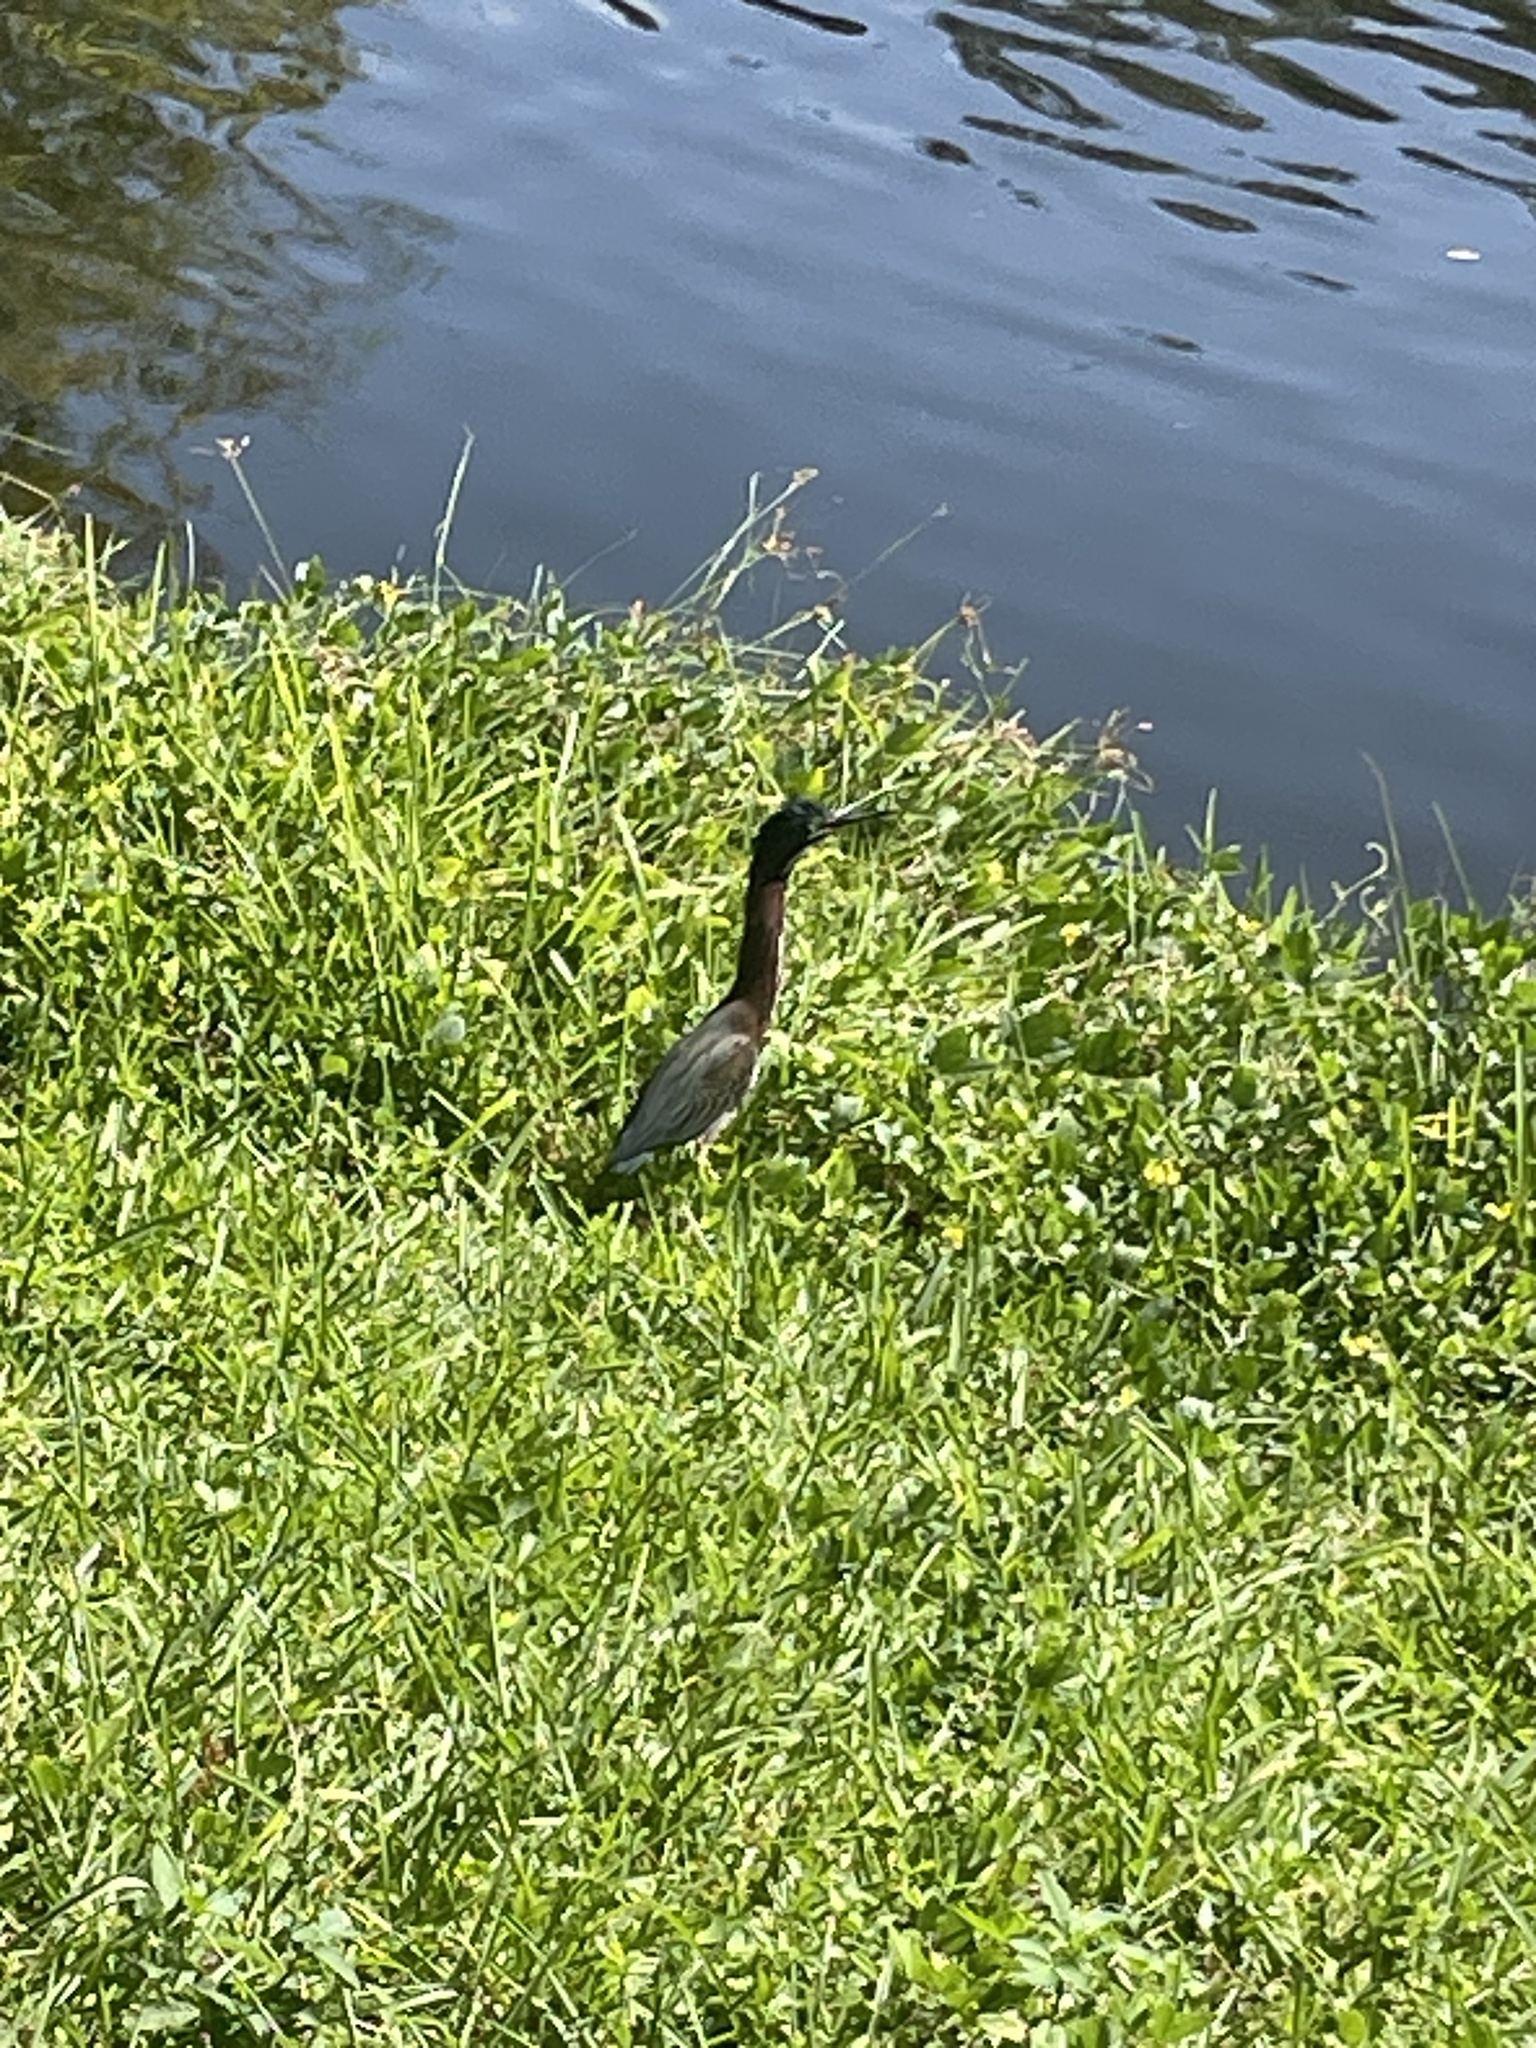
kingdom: Animalia
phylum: Chordata
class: Aves
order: Pelecaniformes
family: Ardeidae
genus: Butorides
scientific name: Butorides virescens
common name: Green heron
